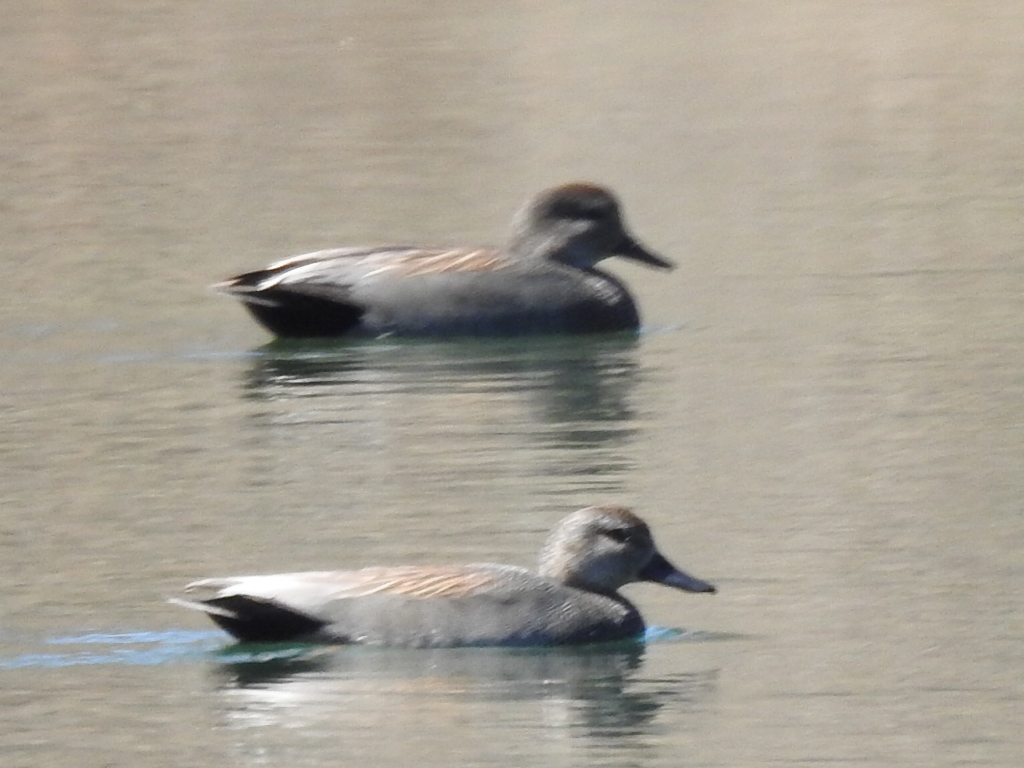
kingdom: Animalia
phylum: Chordata
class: Aves
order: Anseriformes
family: Anatidae
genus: Mareca
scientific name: Mareca strepera
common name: Gadwall
